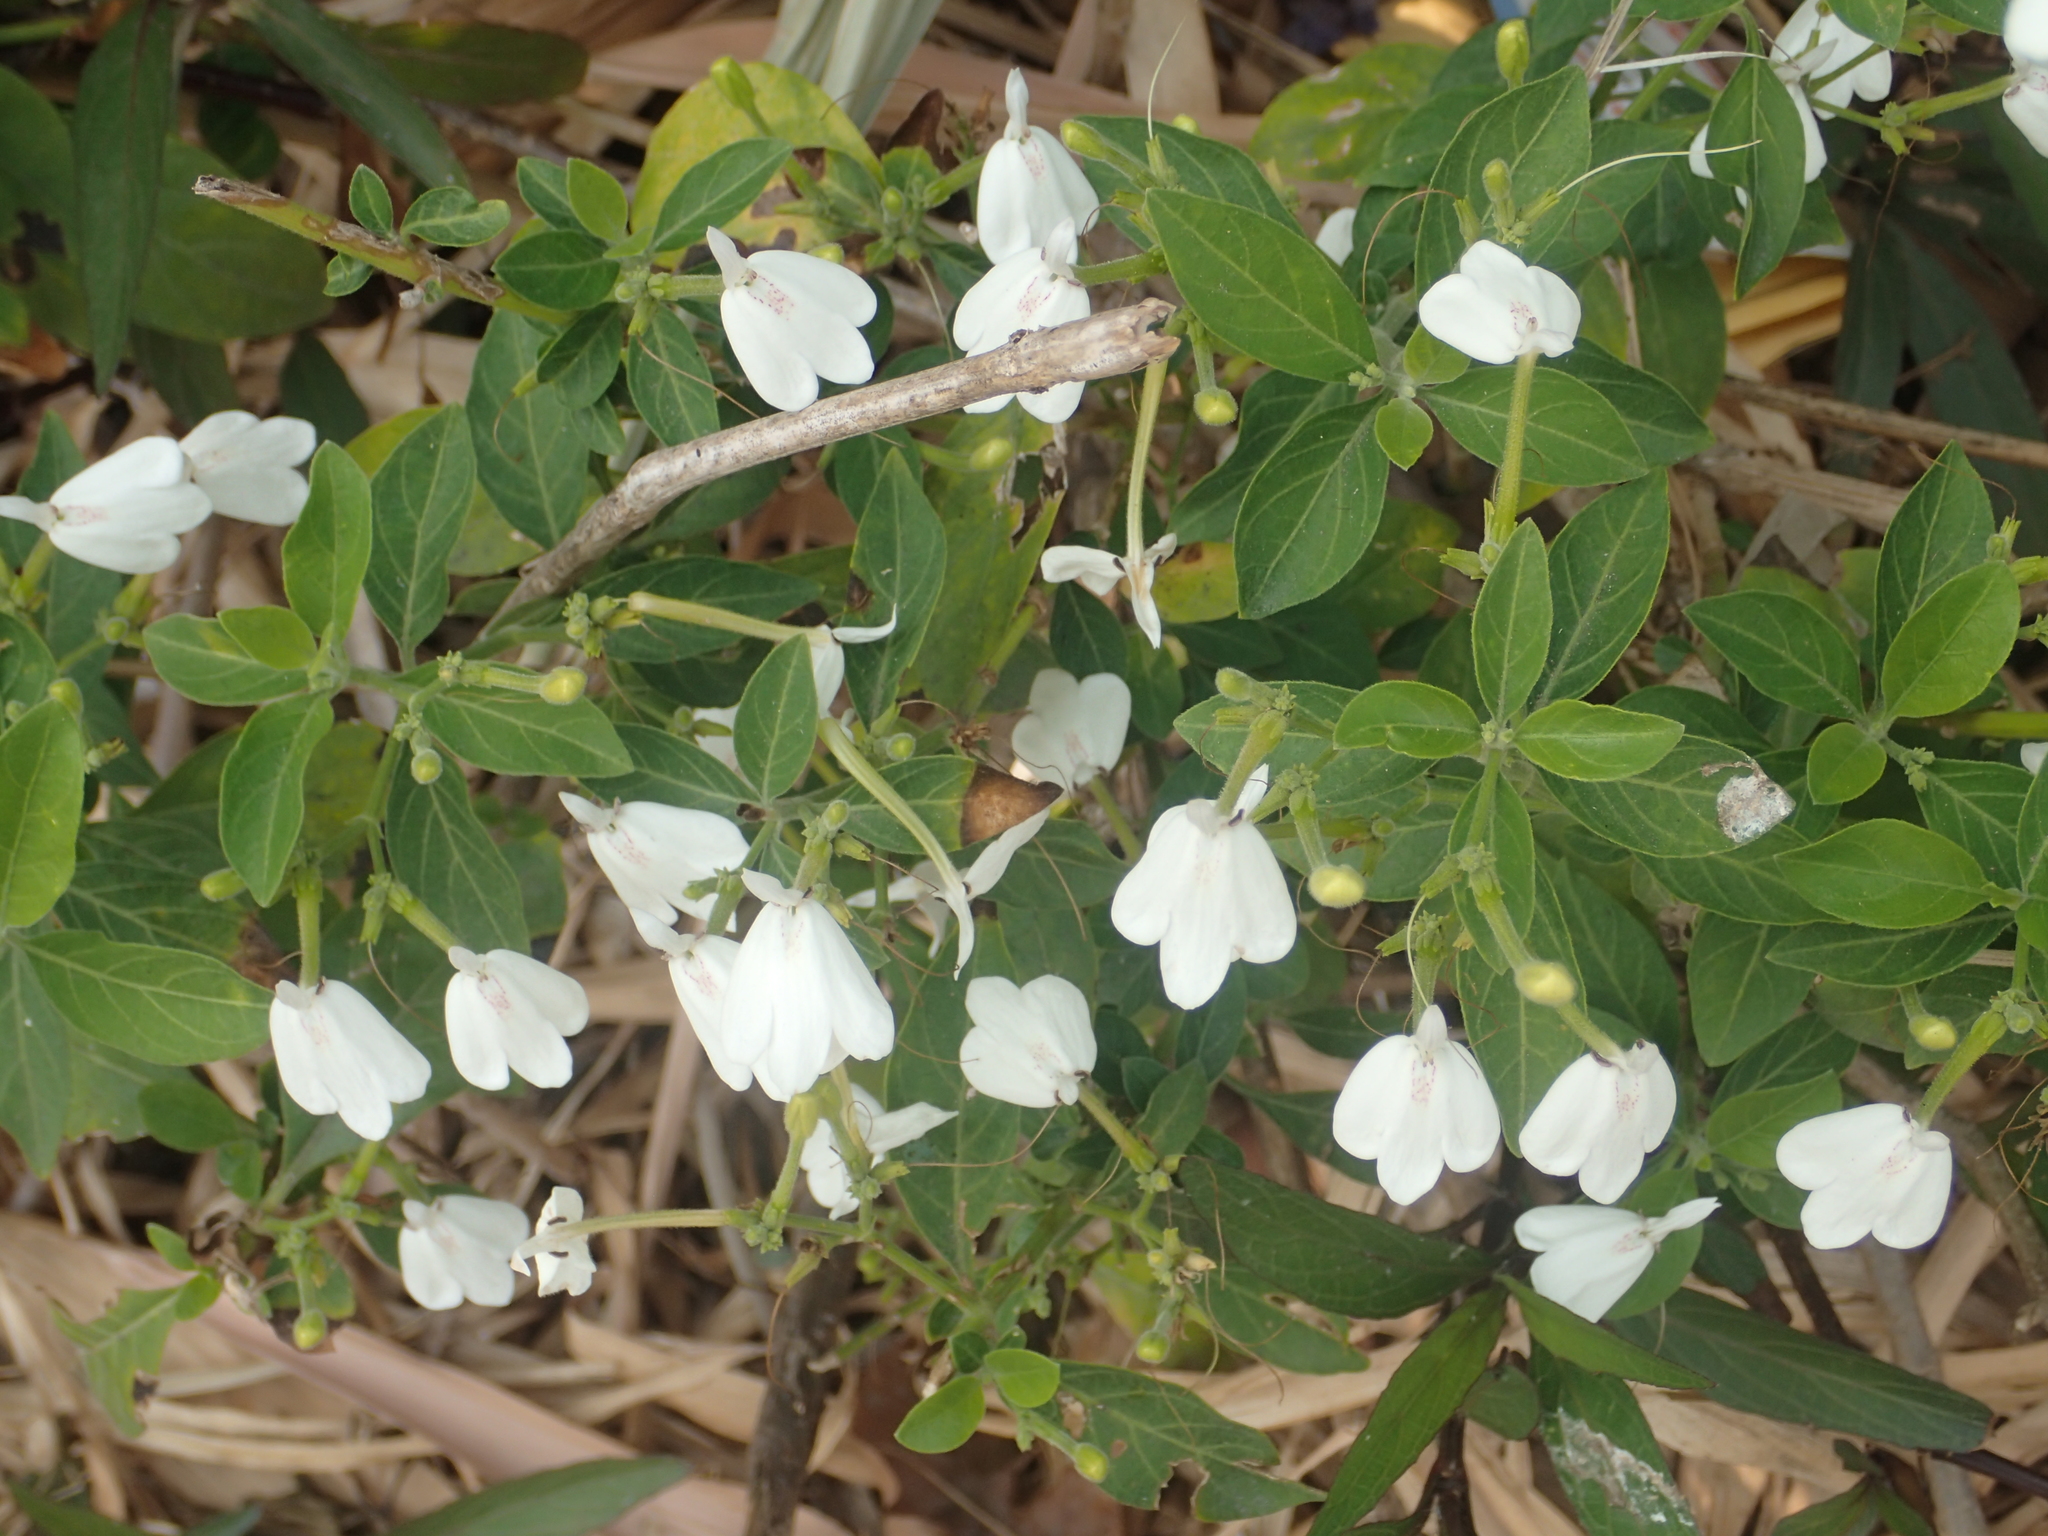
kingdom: Plantae
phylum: Tracheophyta
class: Magnoliopsida
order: Lamiales
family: Acanthaceae
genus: Rhinacanthus
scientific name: Rhinacanthus nasutus
